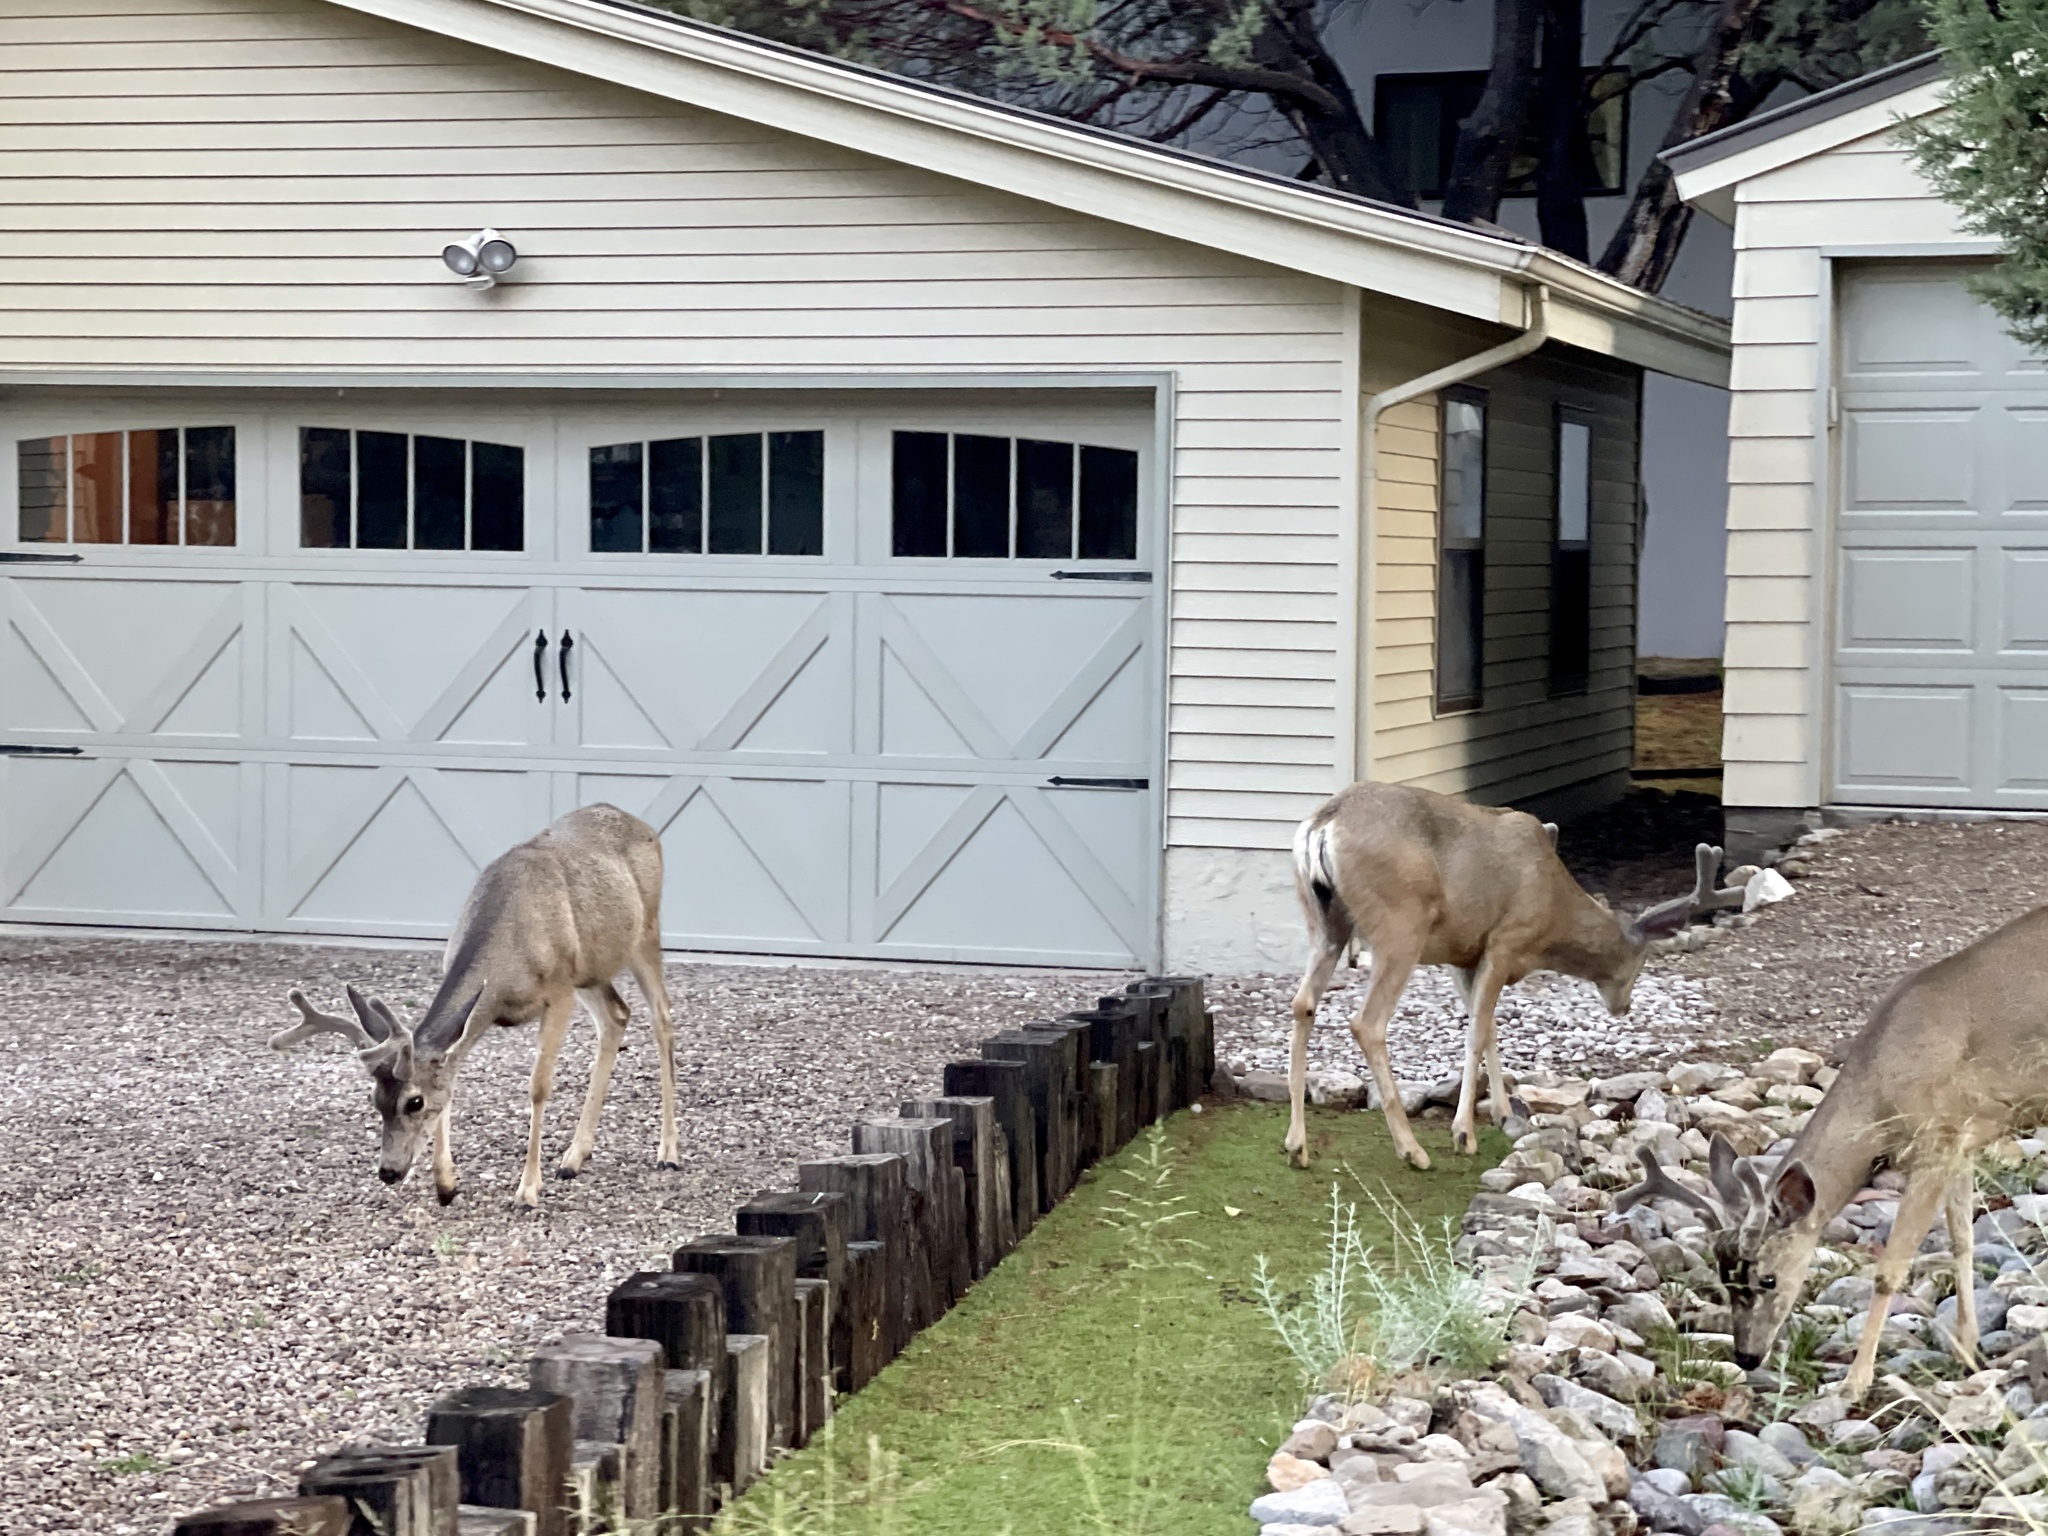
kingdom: Animalia
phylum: Chordata
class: Mammalia
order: Artiodactyla
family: Cervidae
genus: Odocoileus
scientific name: Odocoileus hemionus
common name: Mule deer
